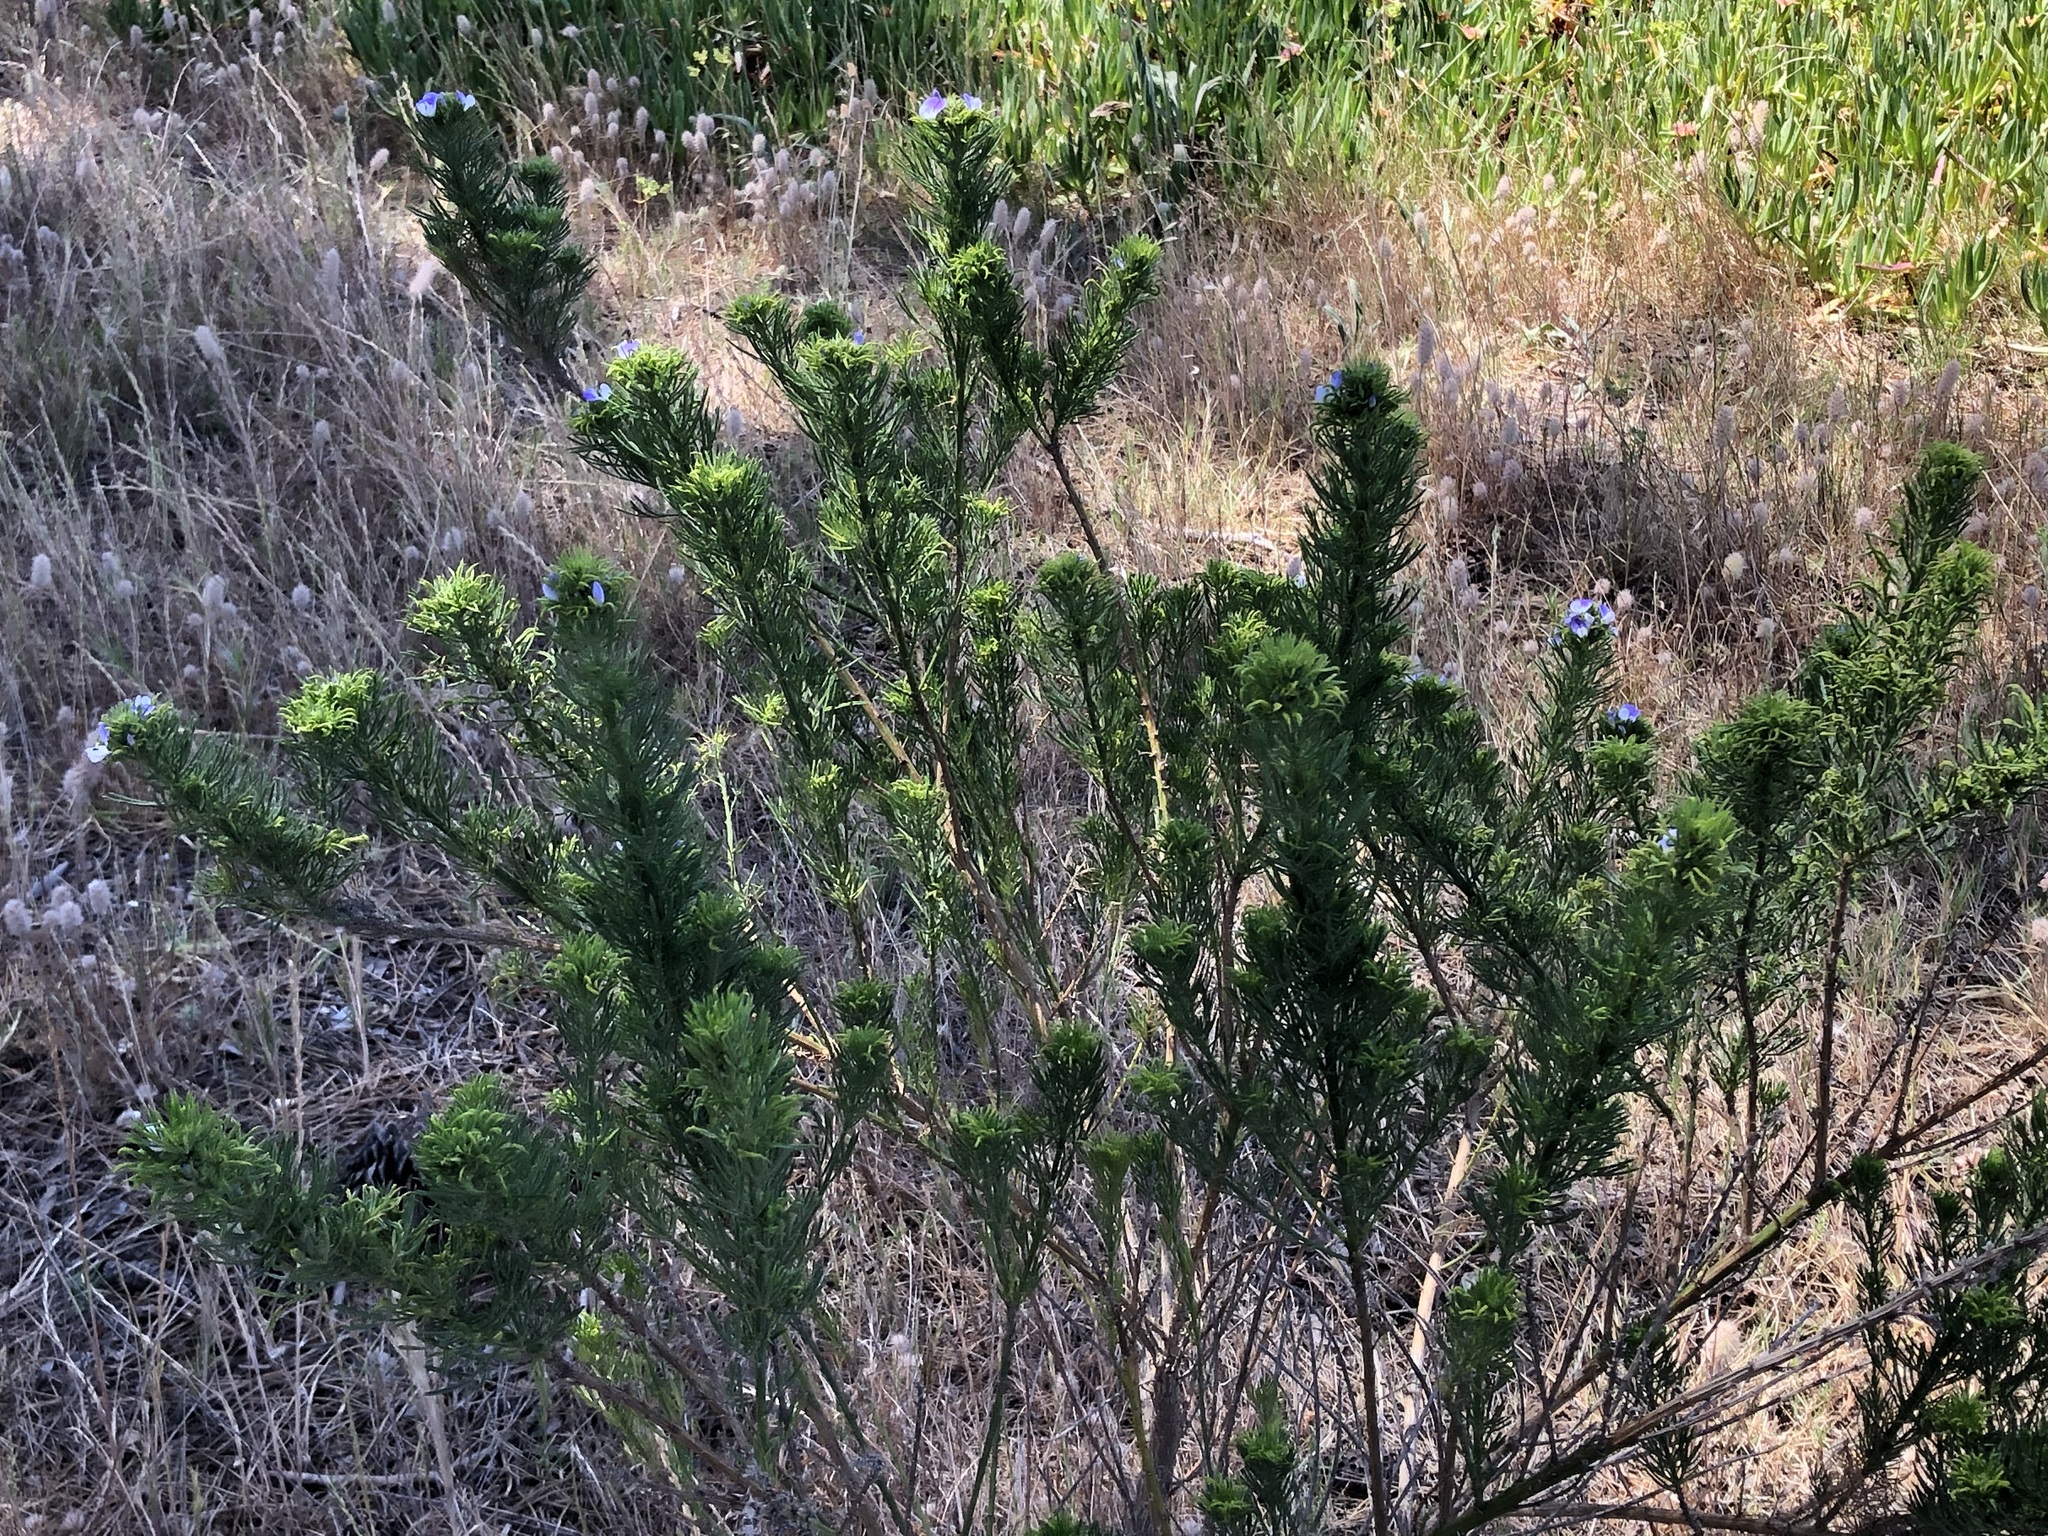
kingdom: Plantae
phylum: Tracheophyta
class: Magnoliopsida
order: Fabales
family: Fabaceae
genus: Psoralea
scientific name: Psoralea pinnata
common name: African scurfpea
